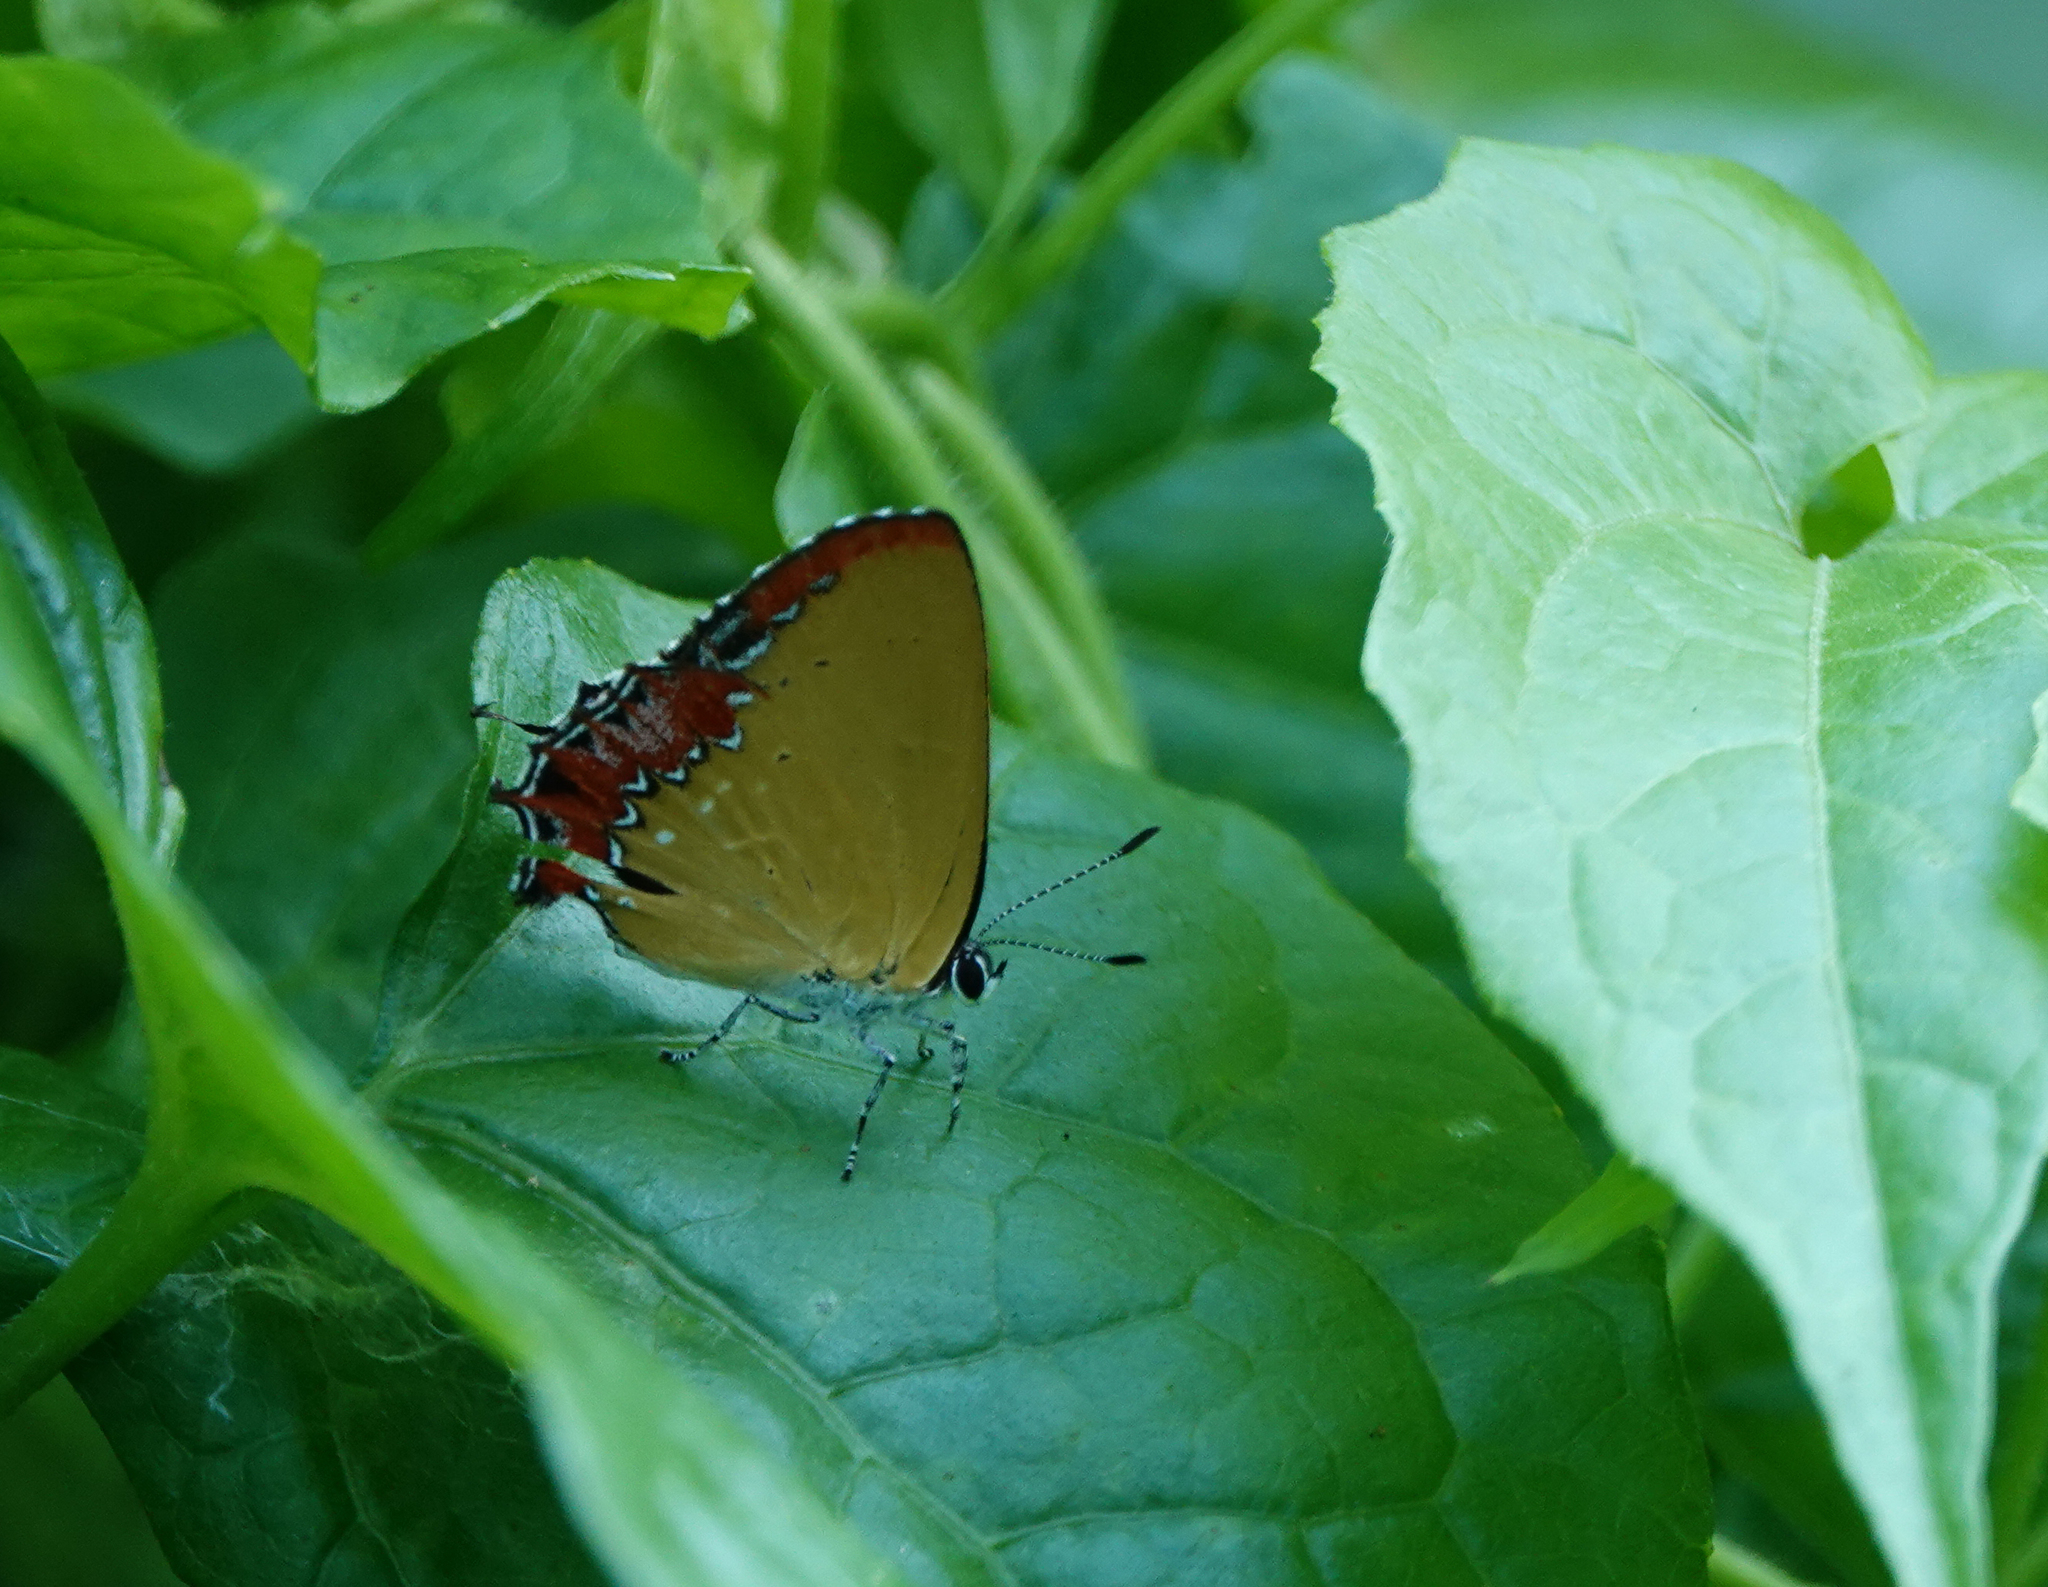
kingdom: Animalia
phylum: Arthropoda
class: Insecta
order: Lepidoptera
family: Lycaenidae
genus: Heliophorus
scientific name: Heliophorus epicles
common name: Purple sapphire
